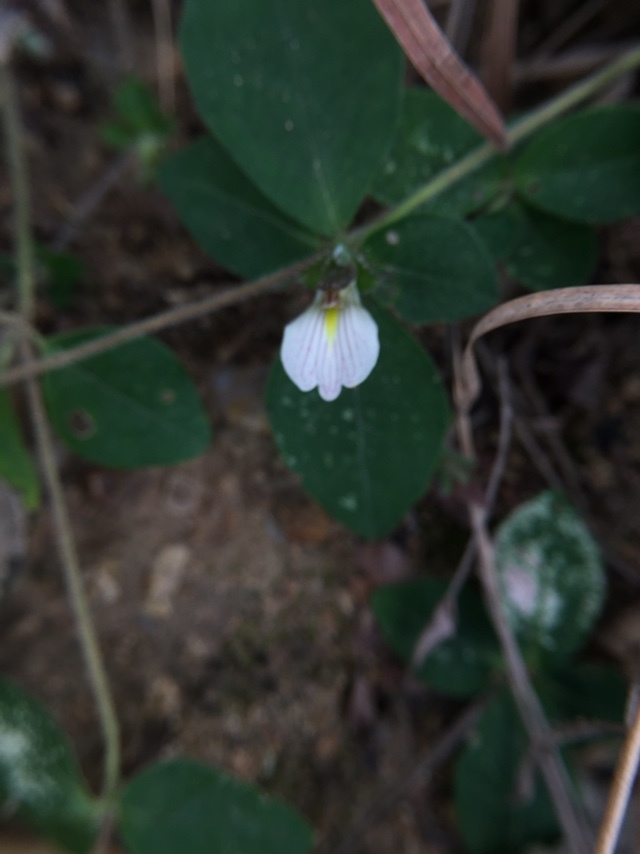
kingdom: Plantae
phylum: Tracheophyta
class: Magnoliopsida
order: Lamiales
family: Acanthaceae
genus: Blepharis
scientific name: Blepharis maderaspatensis
